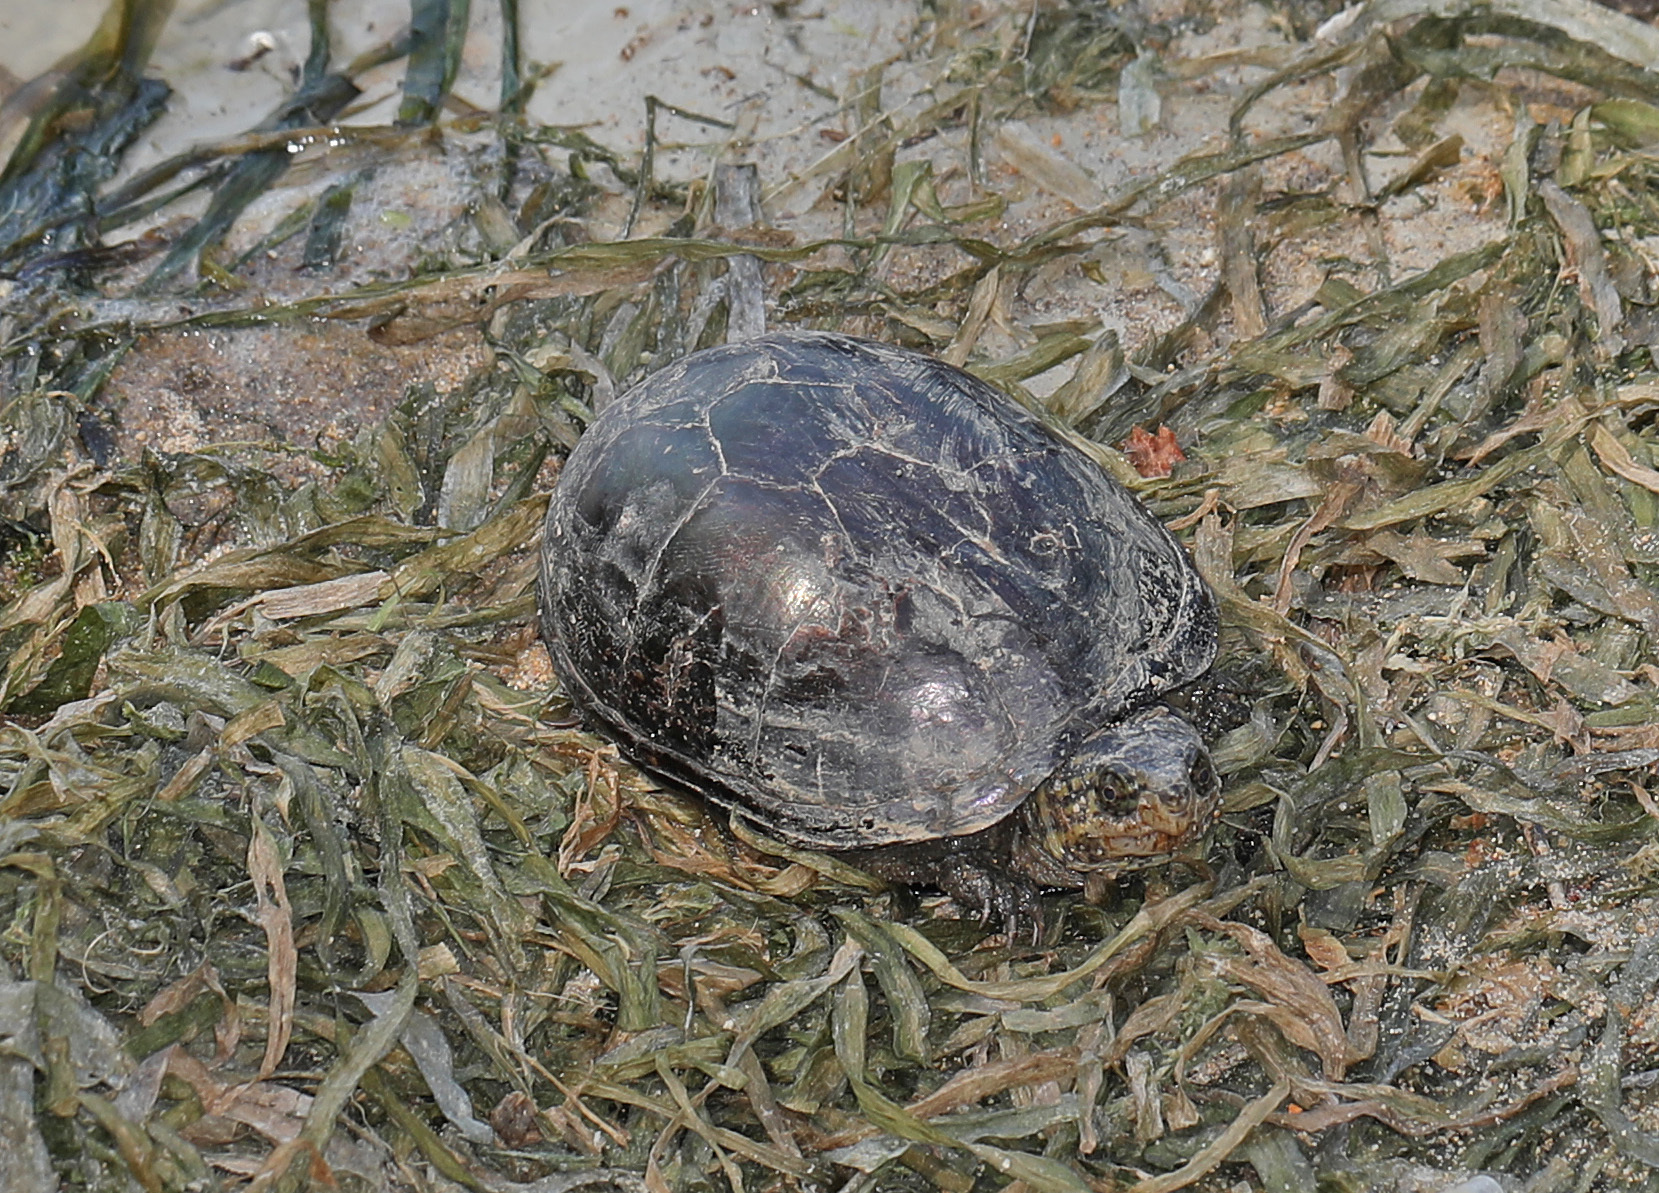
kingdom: Animalia
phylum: Chordata
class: Testudines
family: Kinosternidae
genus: Kinosternon
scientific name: Kinosternon subrubrum
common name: Eastern mud turtle
